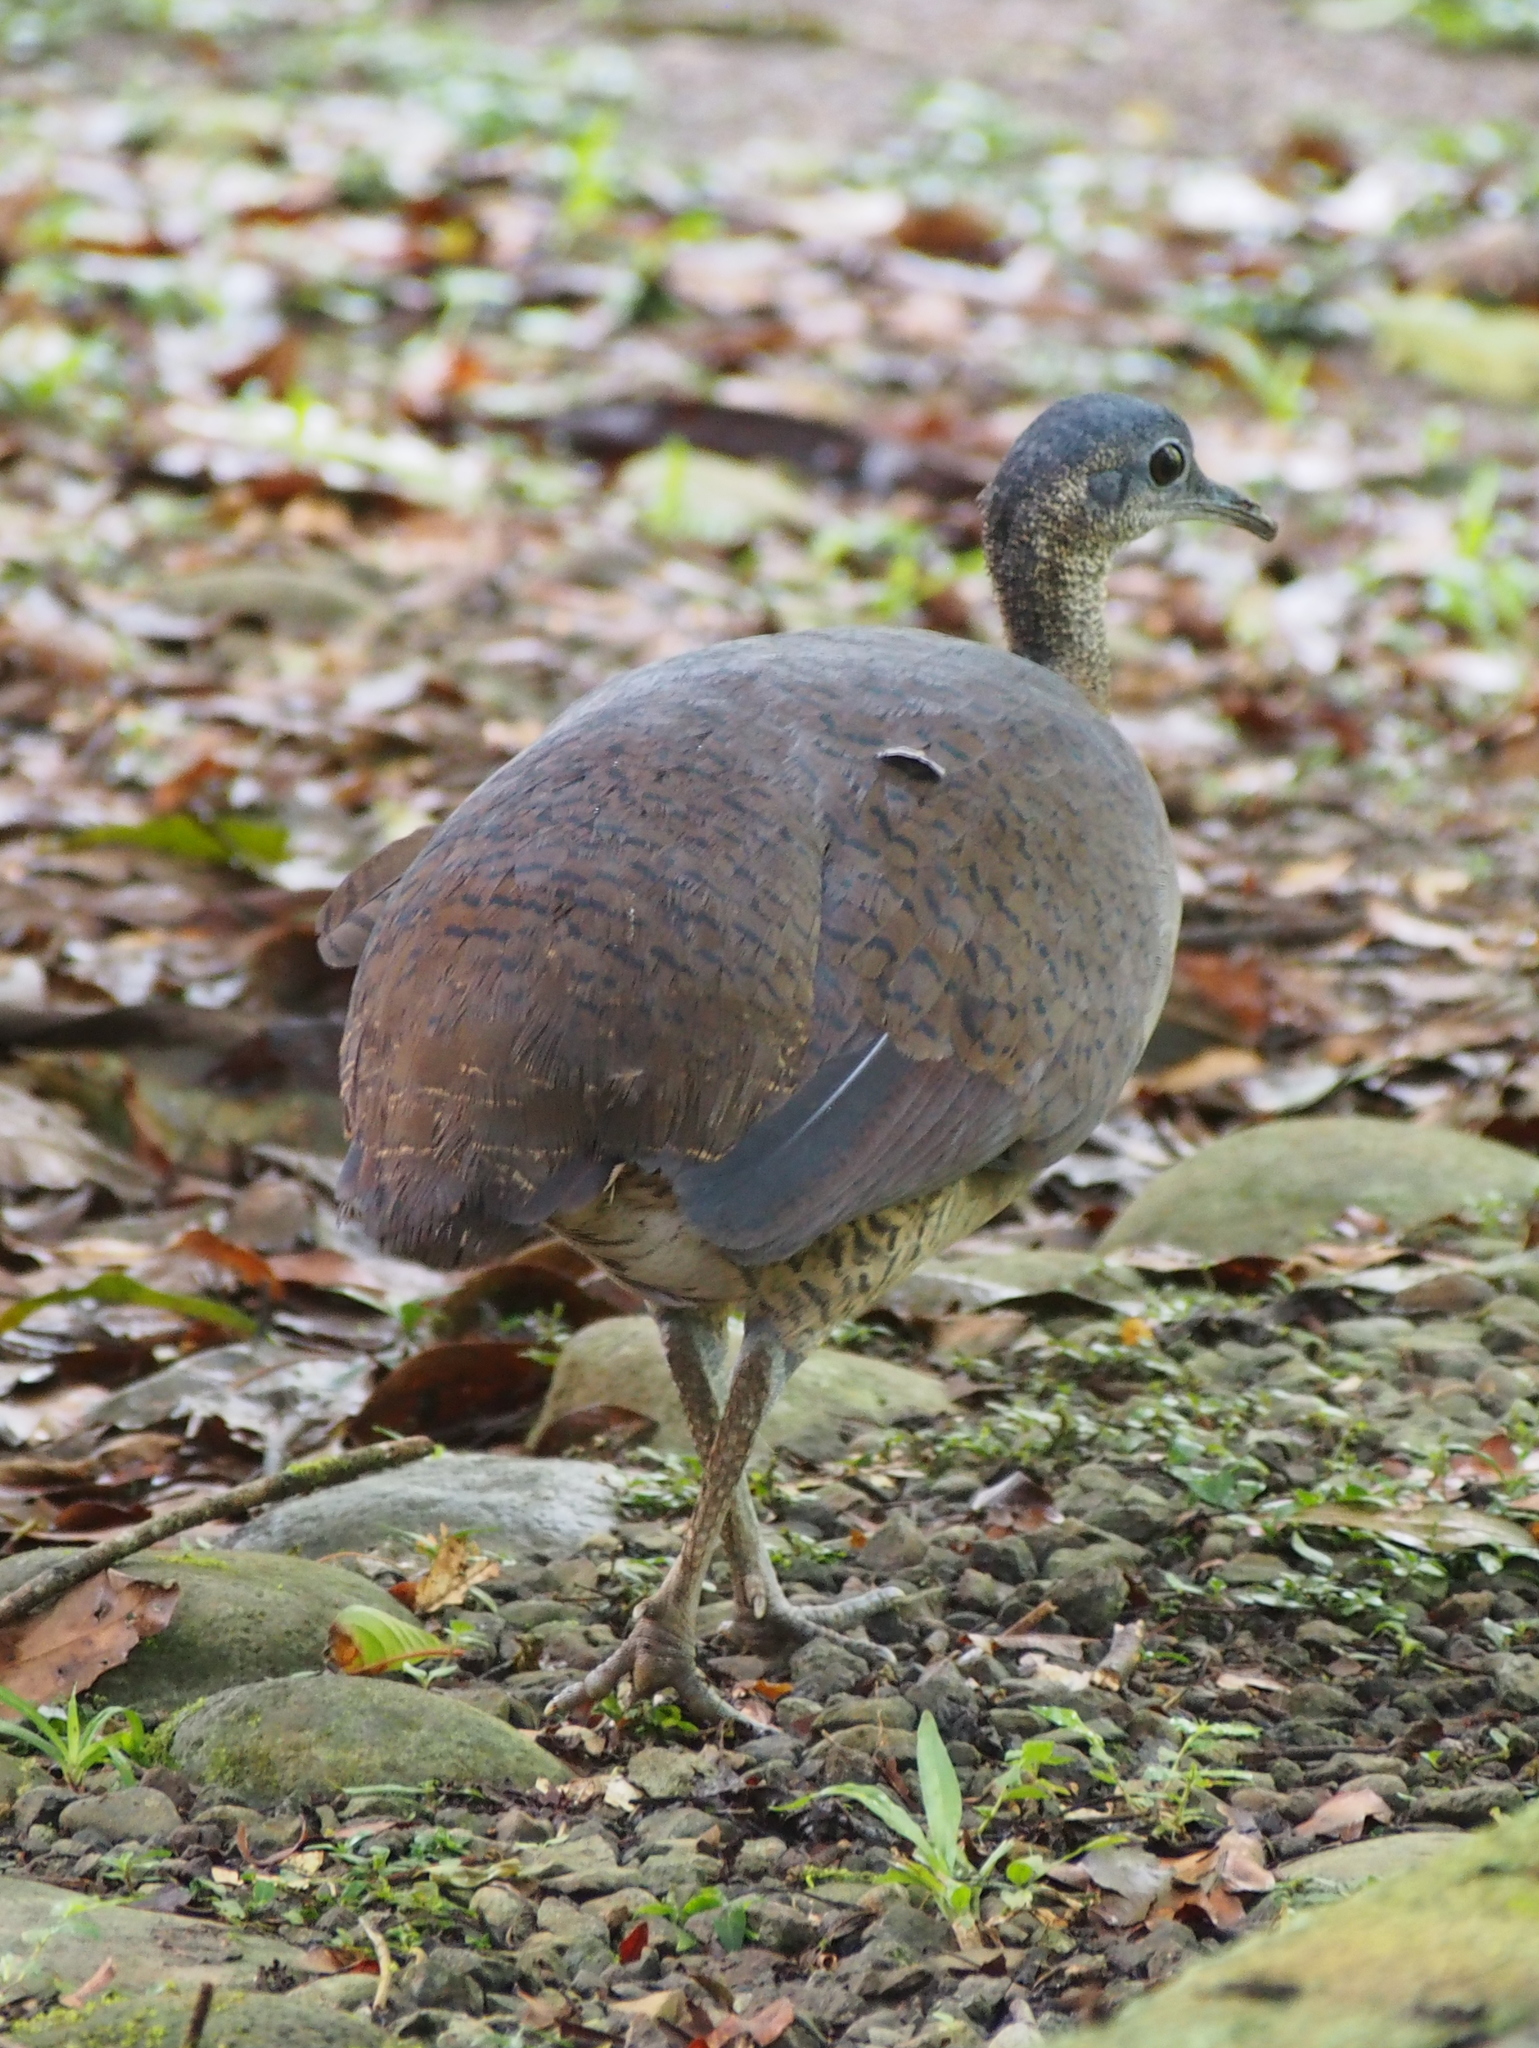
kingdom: Animalia
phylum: Chordata
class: Aves
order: Tinamiformes
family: Tinamidae
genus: Tinamus
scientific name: Tinamus major
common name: Great tinamou
